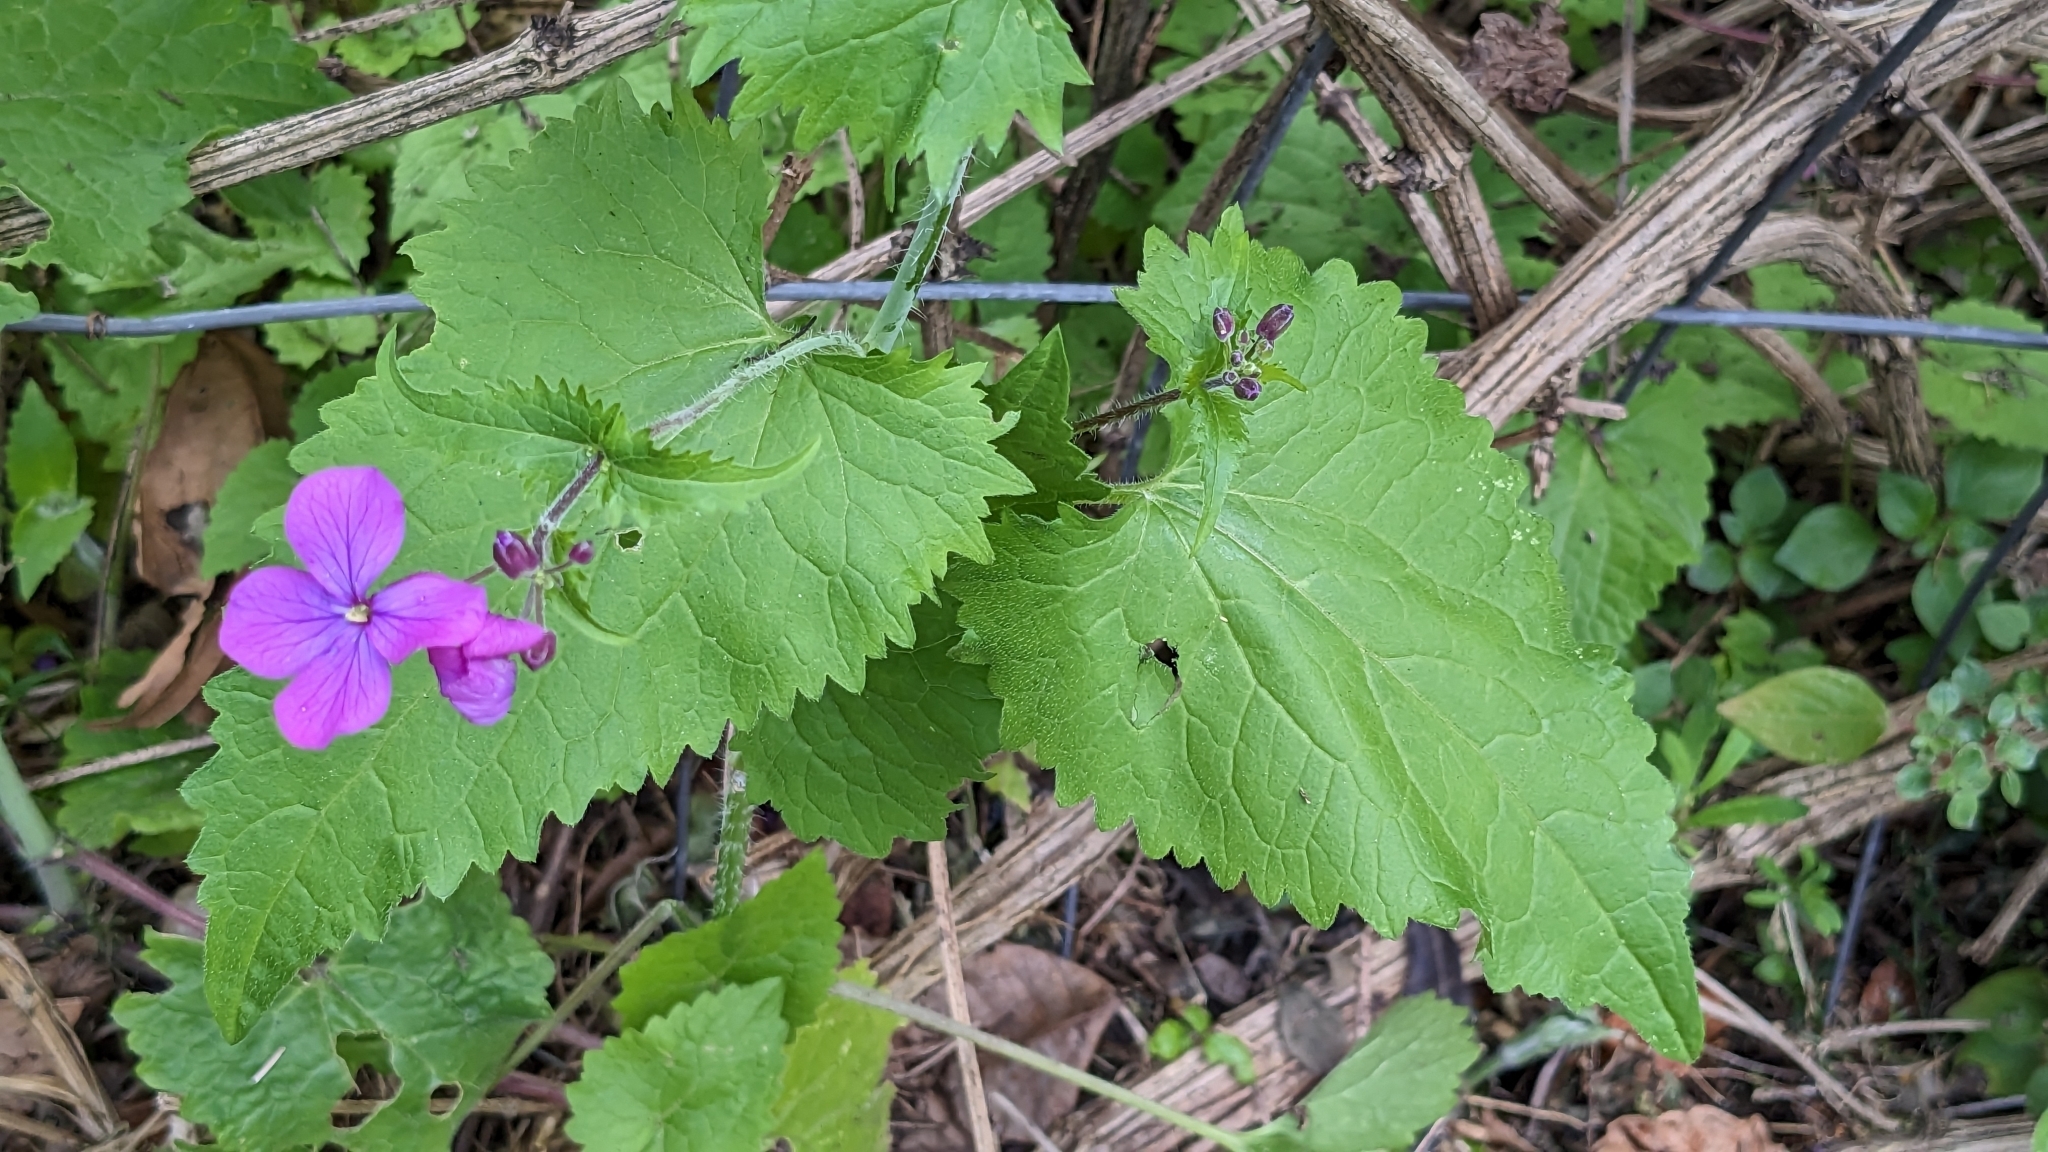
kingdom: Plantae
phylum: Tracheophyta
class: Magnoliopsida
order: Brassicales
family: Brassicaceae
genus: Lunaria
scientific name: Lunaria annua
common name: Honesty
